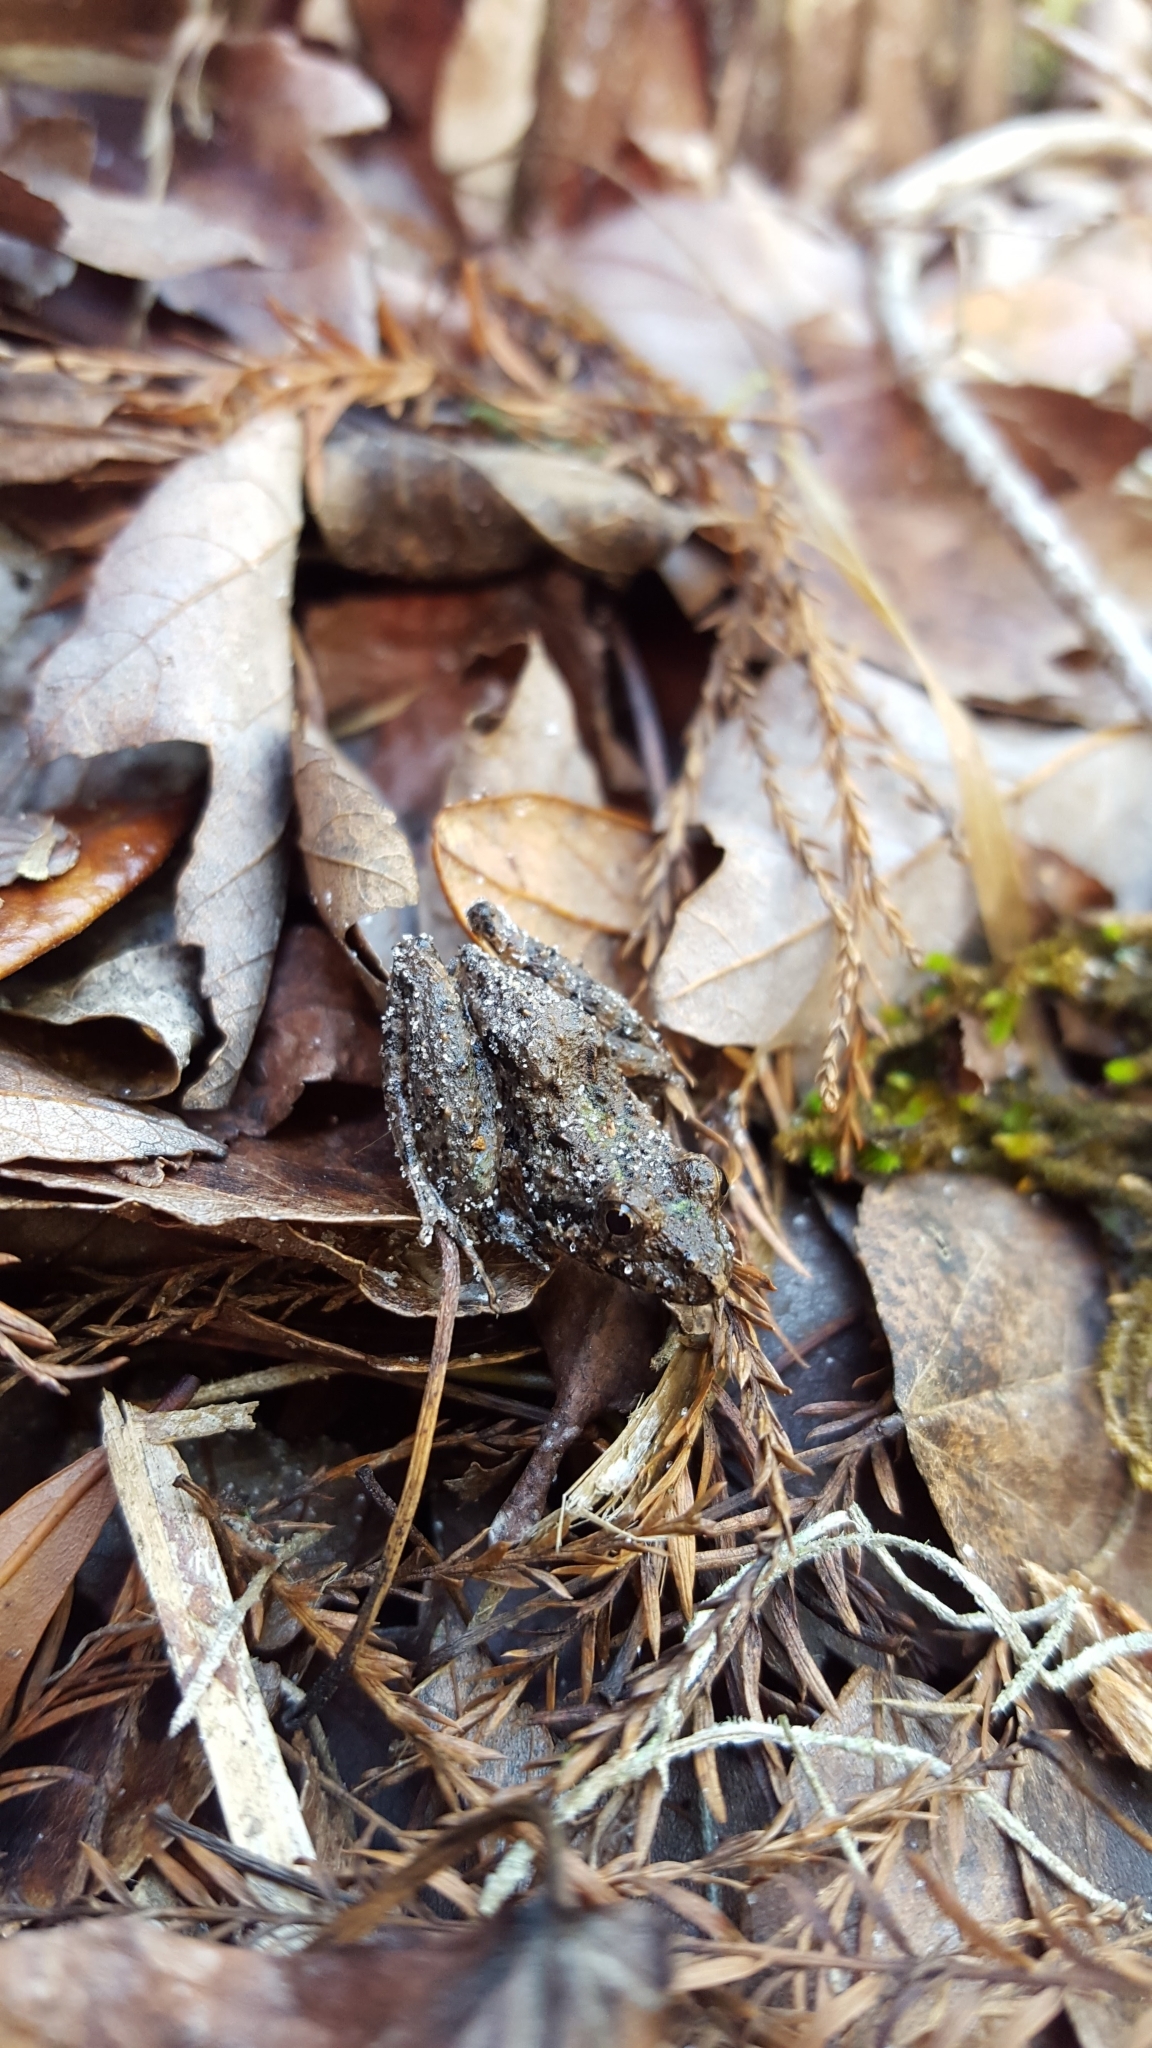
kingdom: Animalia
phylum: Chordata
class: Amphibia
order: Anura
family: Hylidae
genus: Acris
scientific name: Acris gryllus
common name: Southern cricket frog
